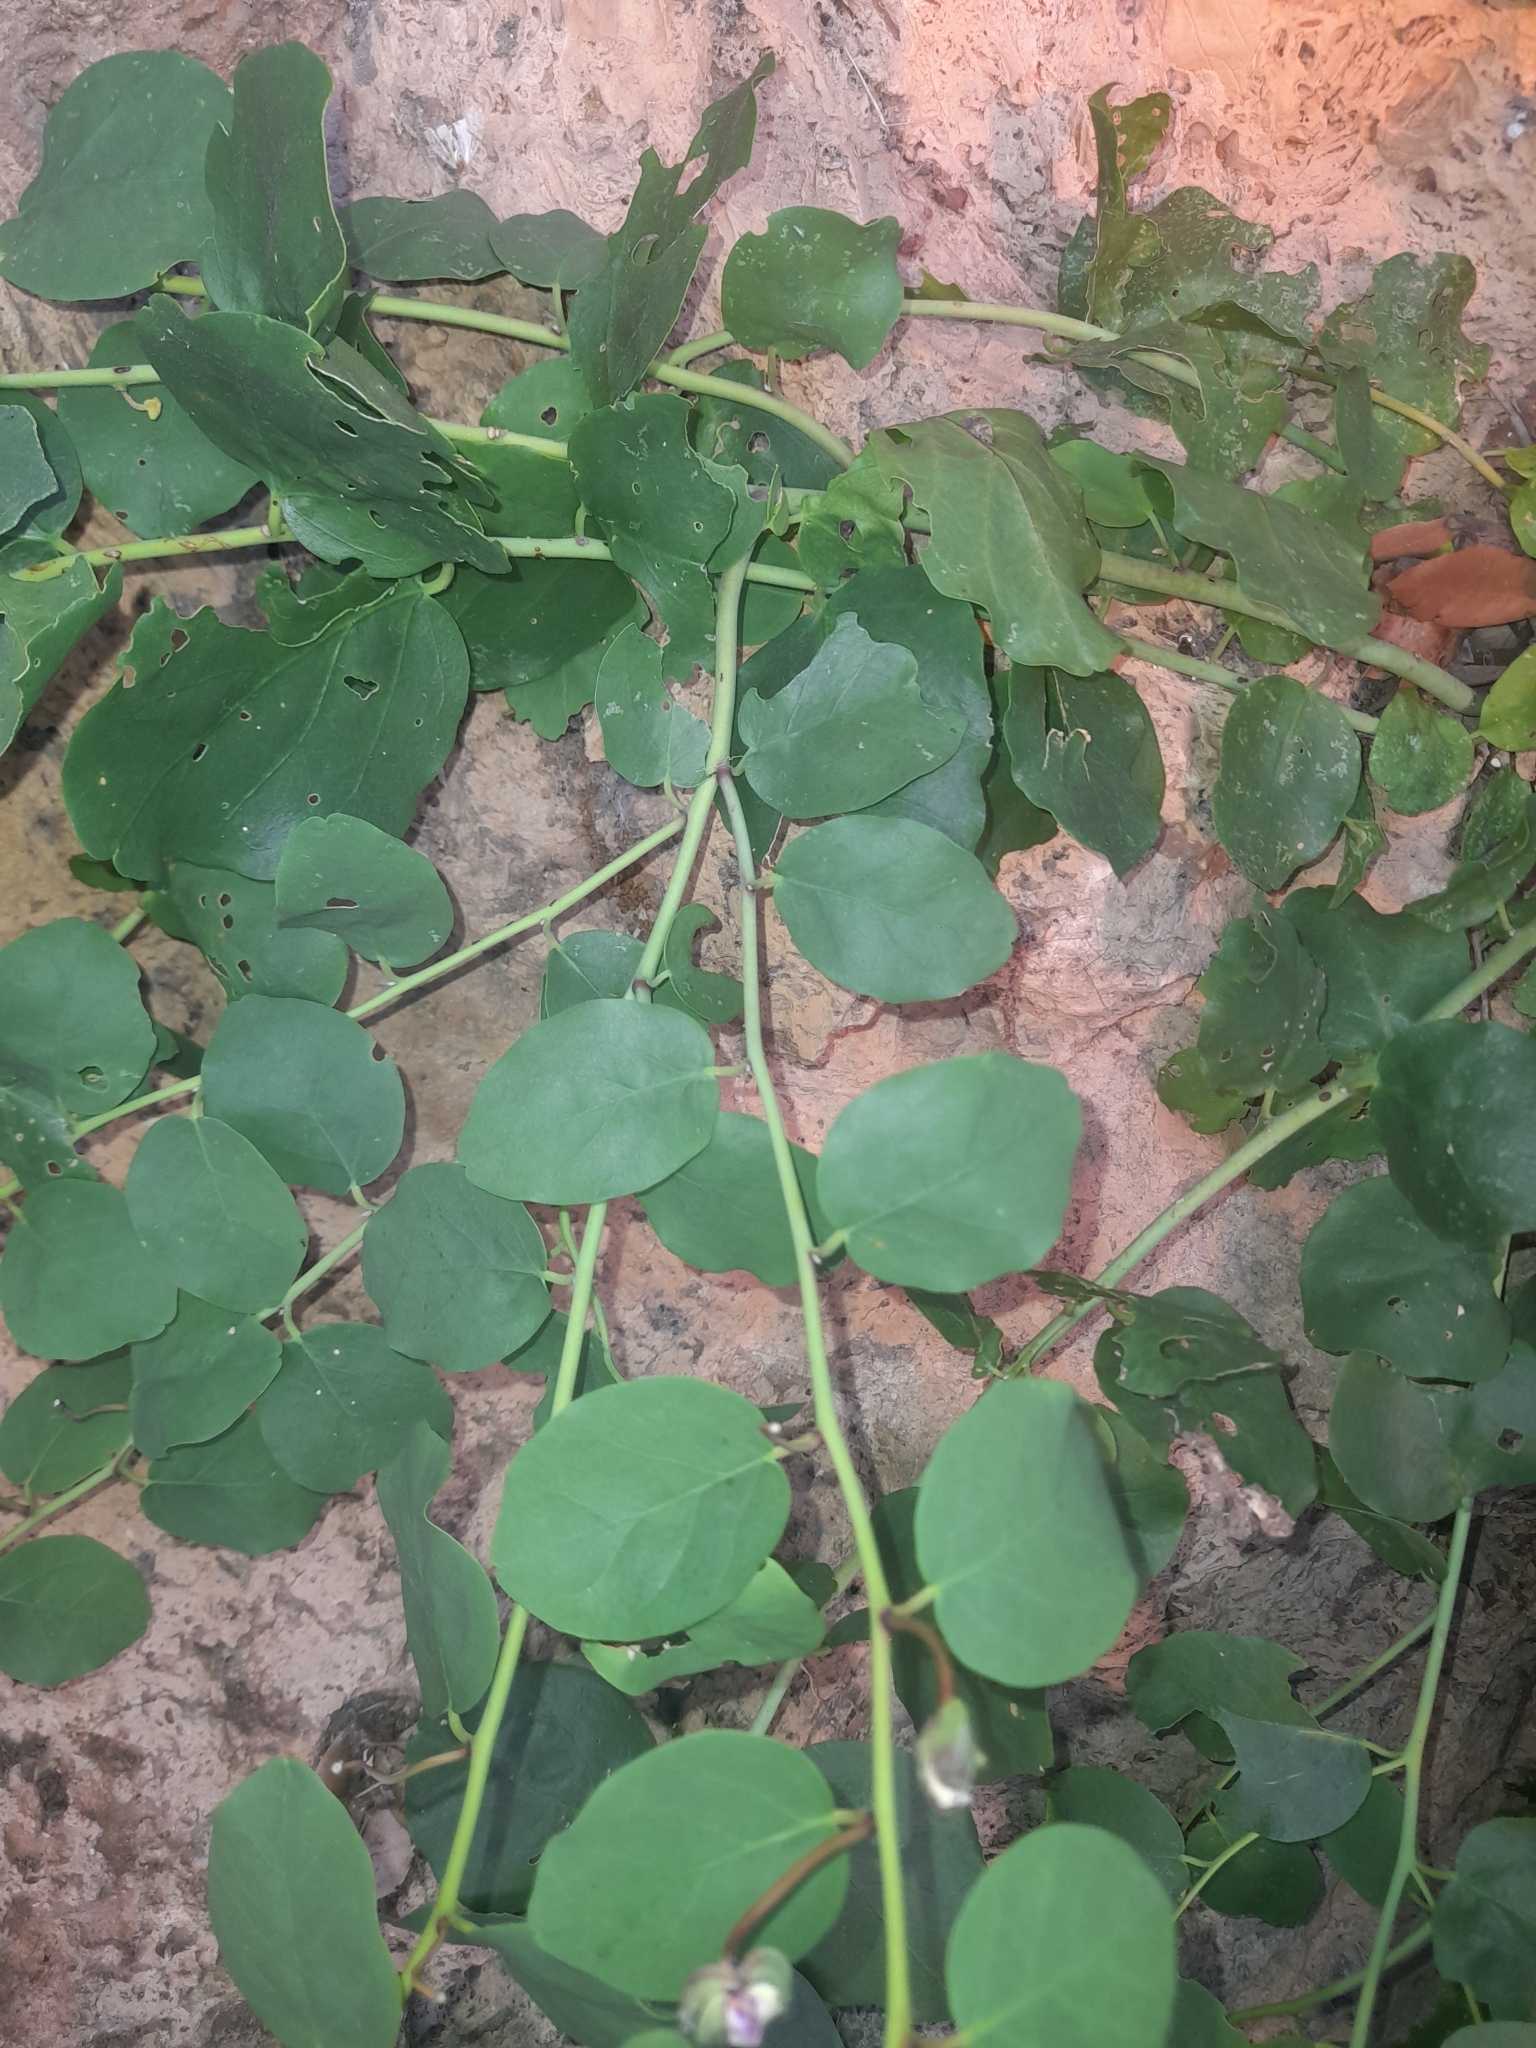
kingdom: Plantae
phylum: Tracheophyta
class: Magnoliopsida
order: Brassicales
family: Capparaceae
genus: Capparis
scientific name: Capparis orientalis
